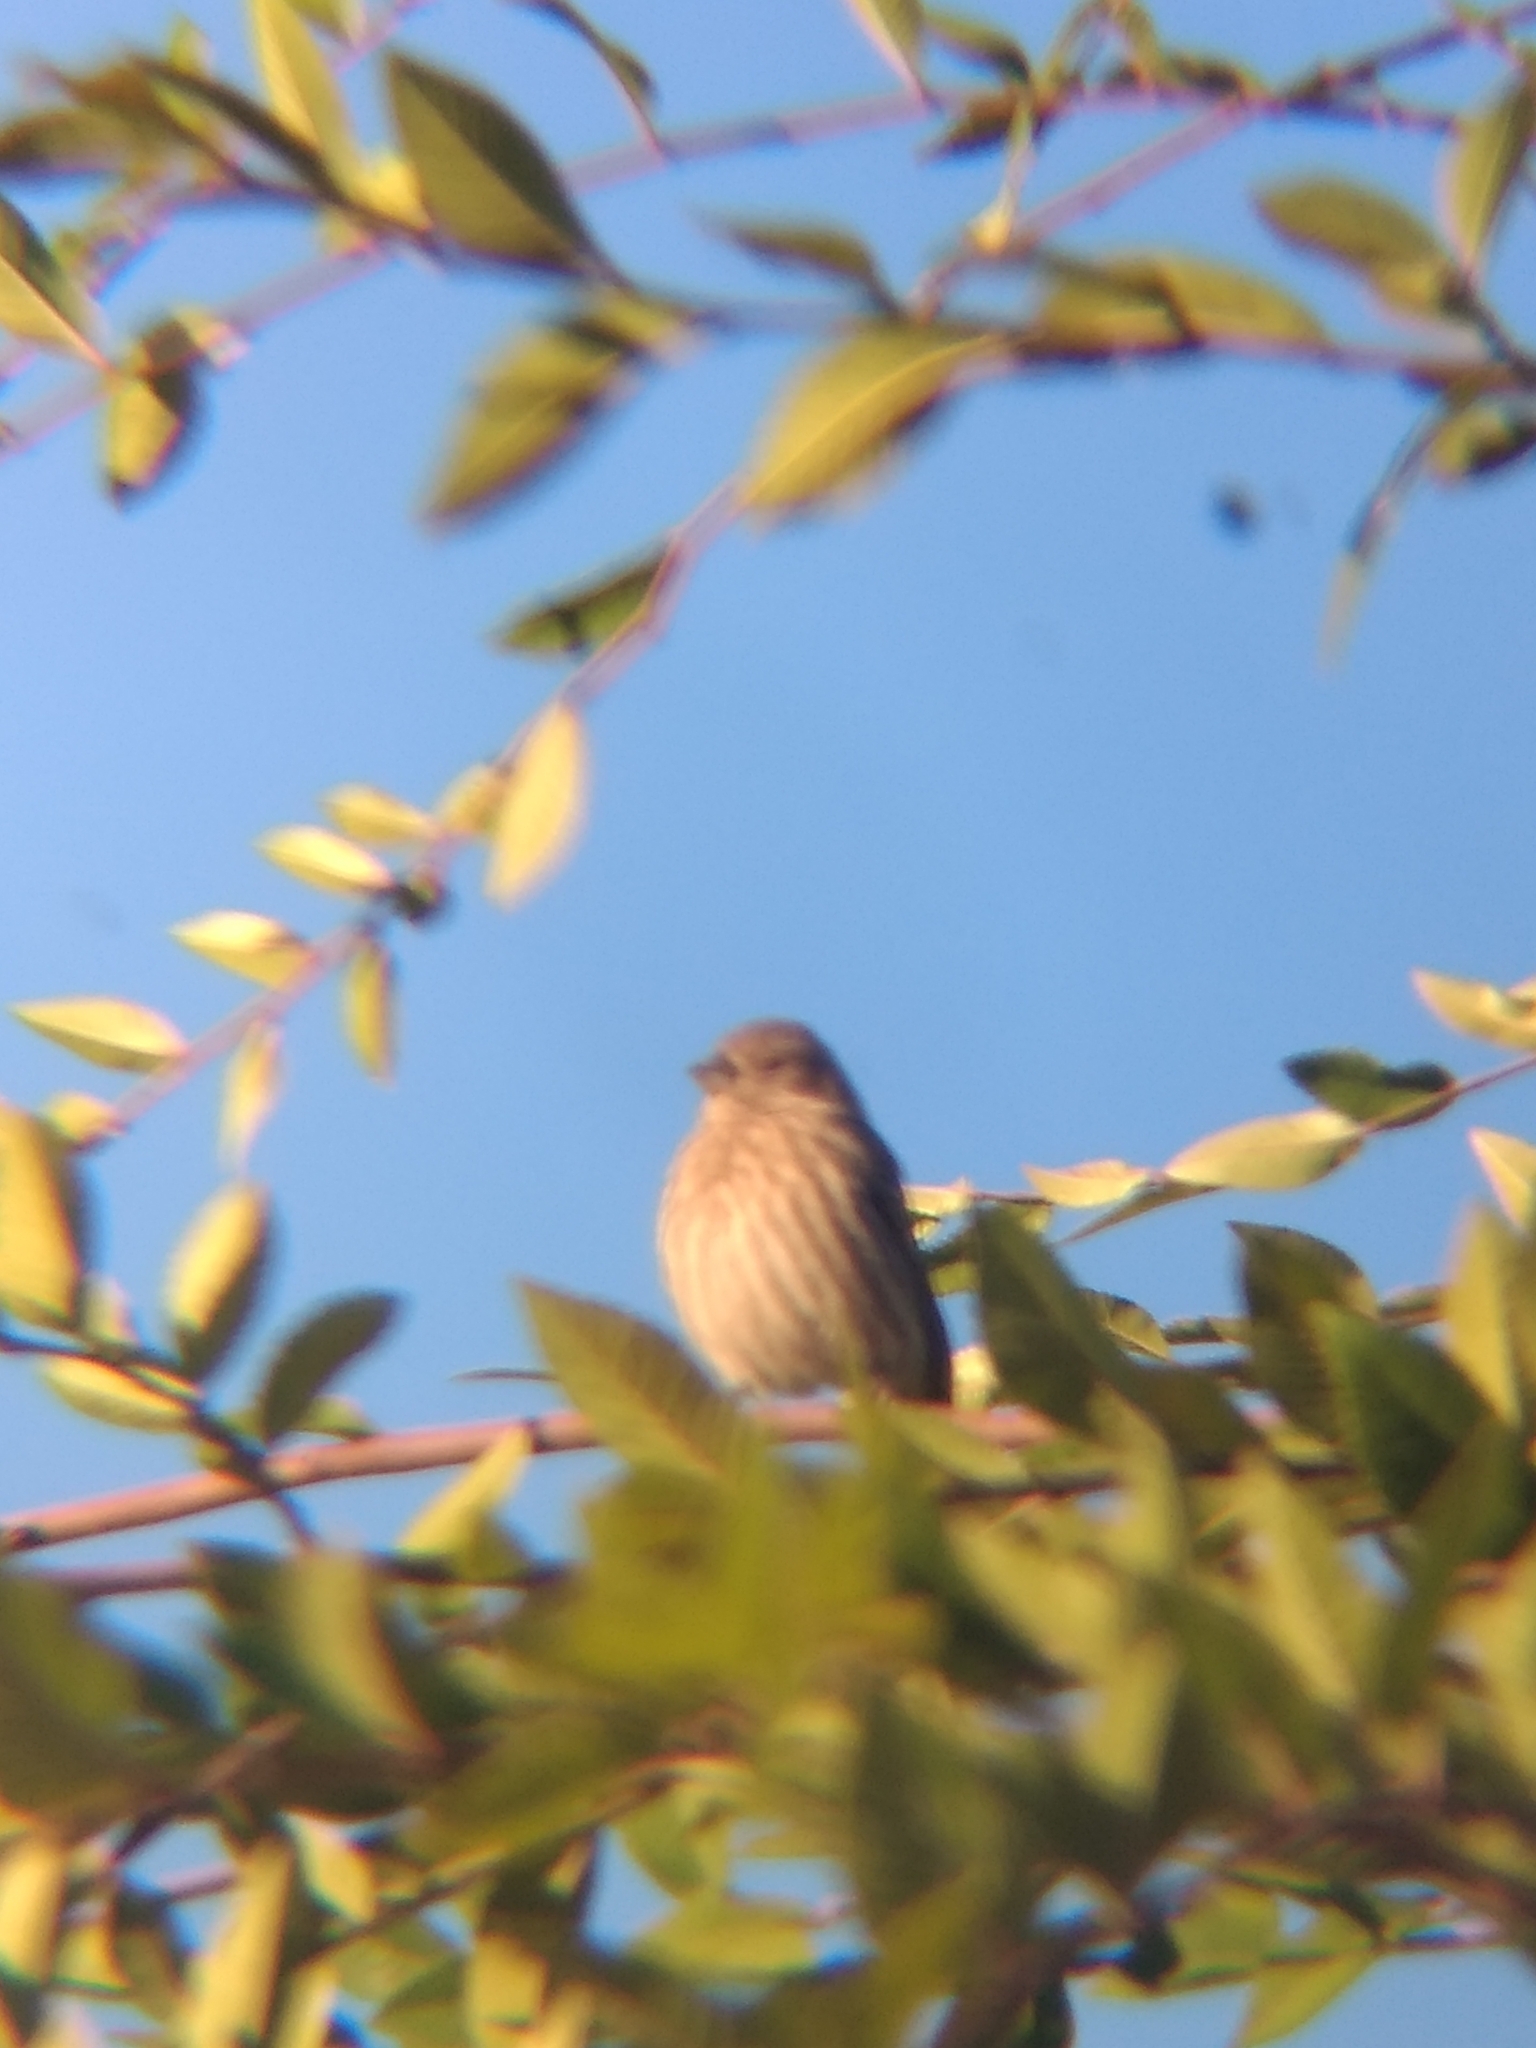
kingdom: Animalia
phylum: Chordata
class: Aves
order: Passeriformes
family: Fringillidae
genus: Haemorhous
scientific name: Haemorhous mexicanus
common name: House finch
